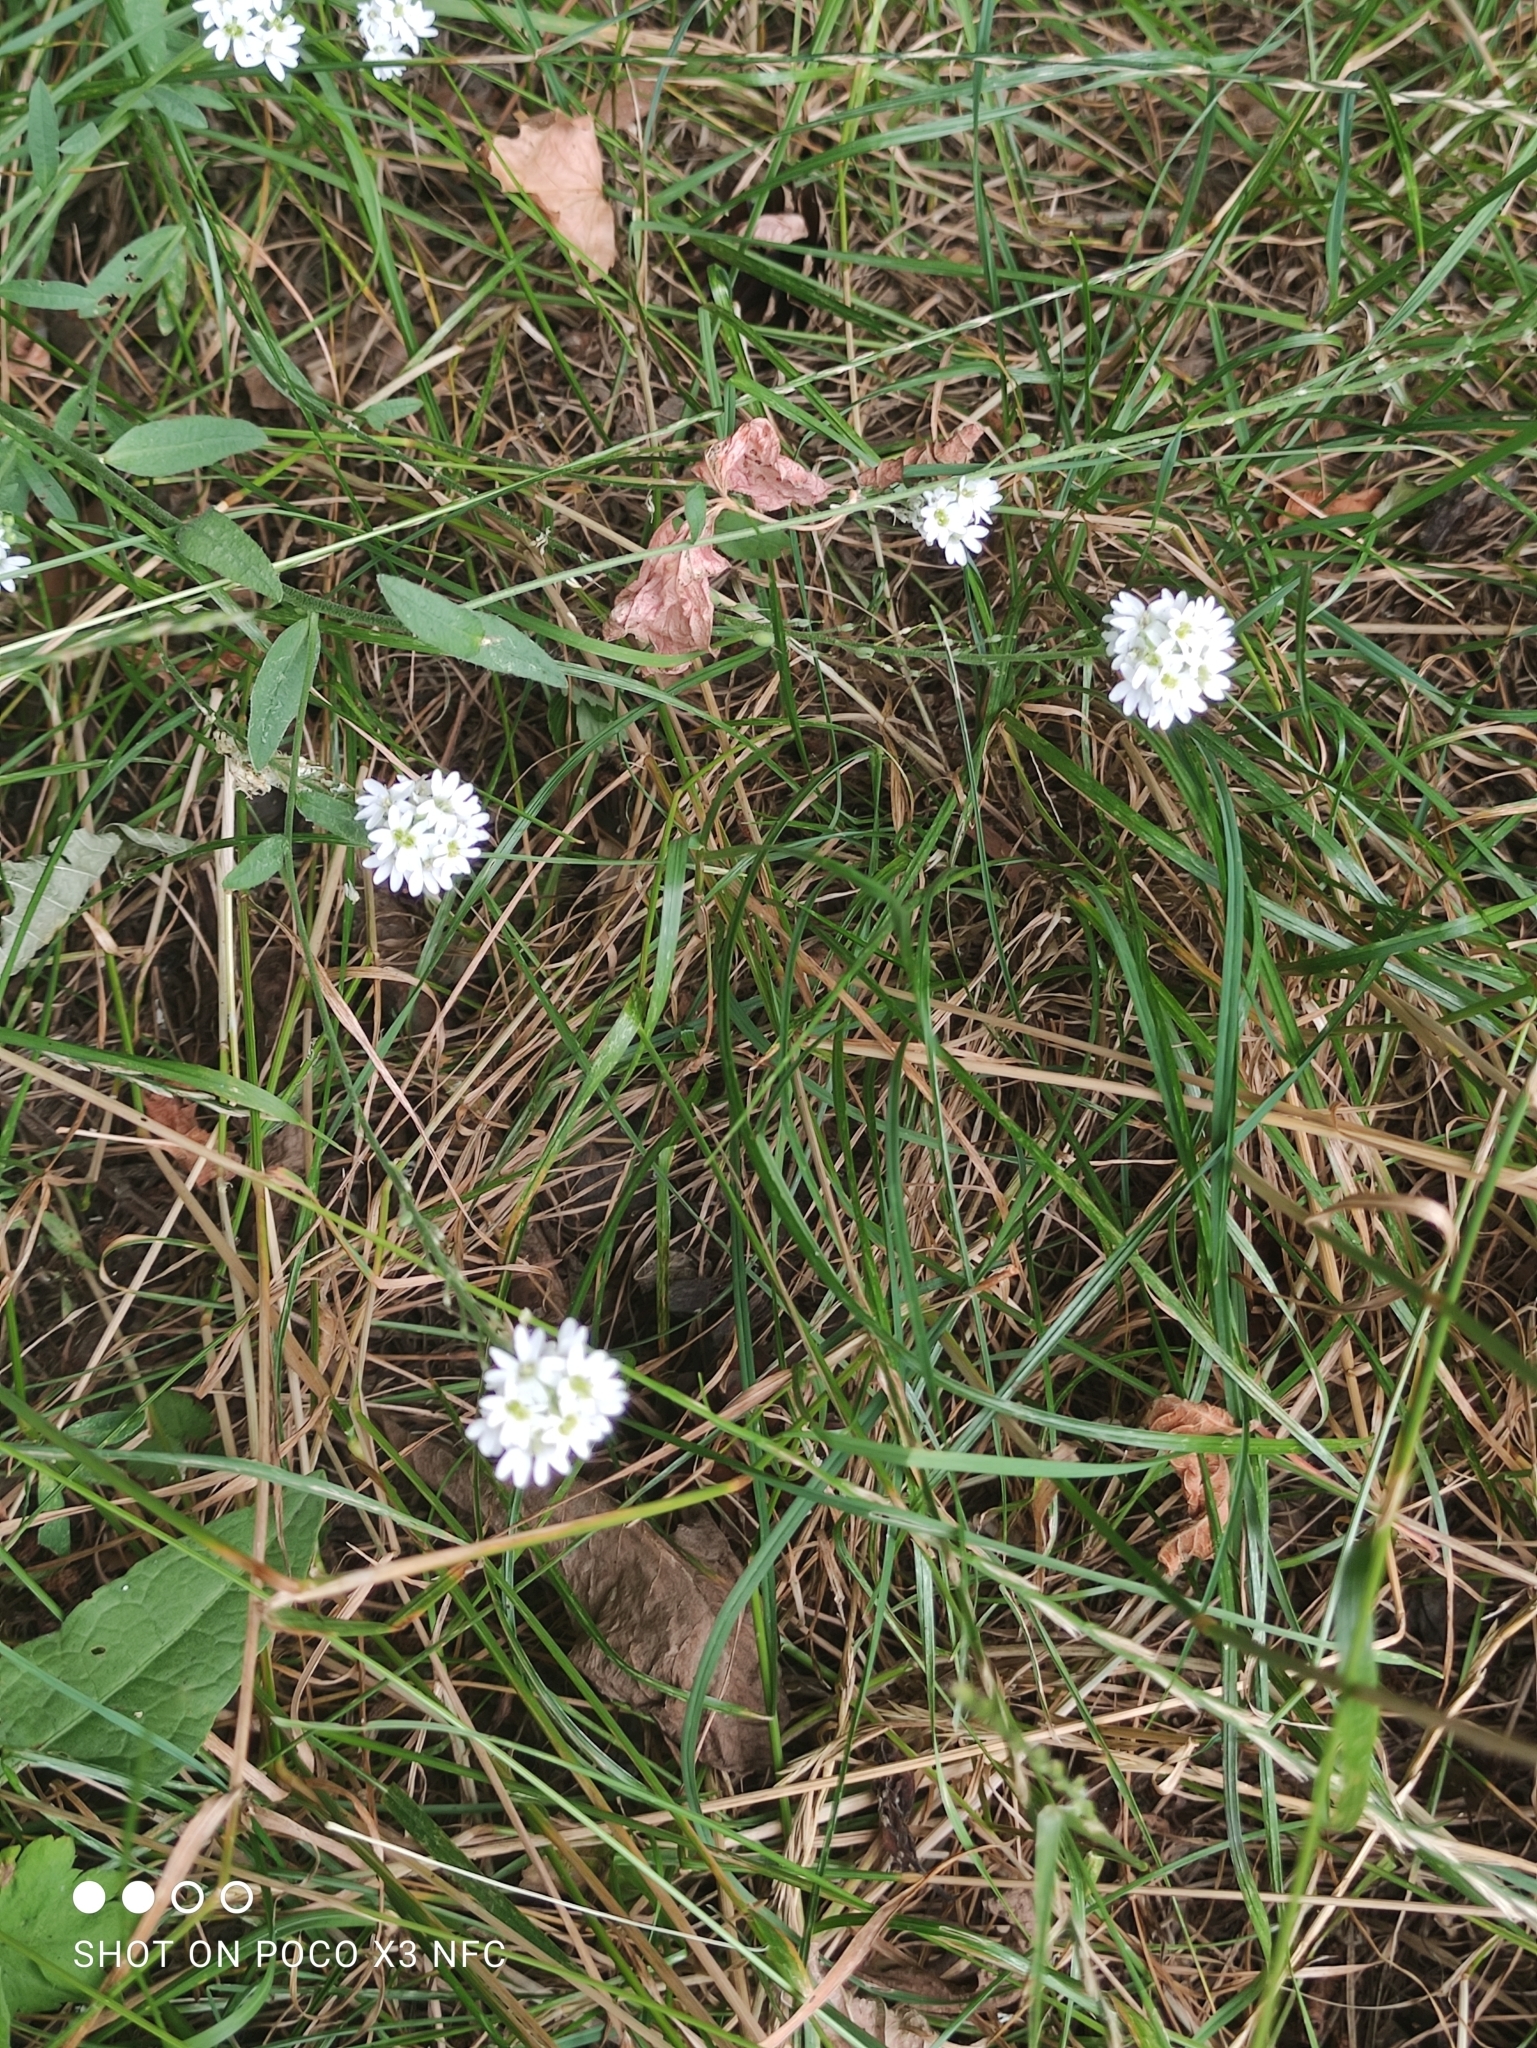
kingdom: Plantae
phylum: Tracheophyta
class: Magnoliopsida
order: Brassicales
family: Brassicaceae
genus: Berteroa
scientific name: Berteroa incana
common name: Hoary alison
